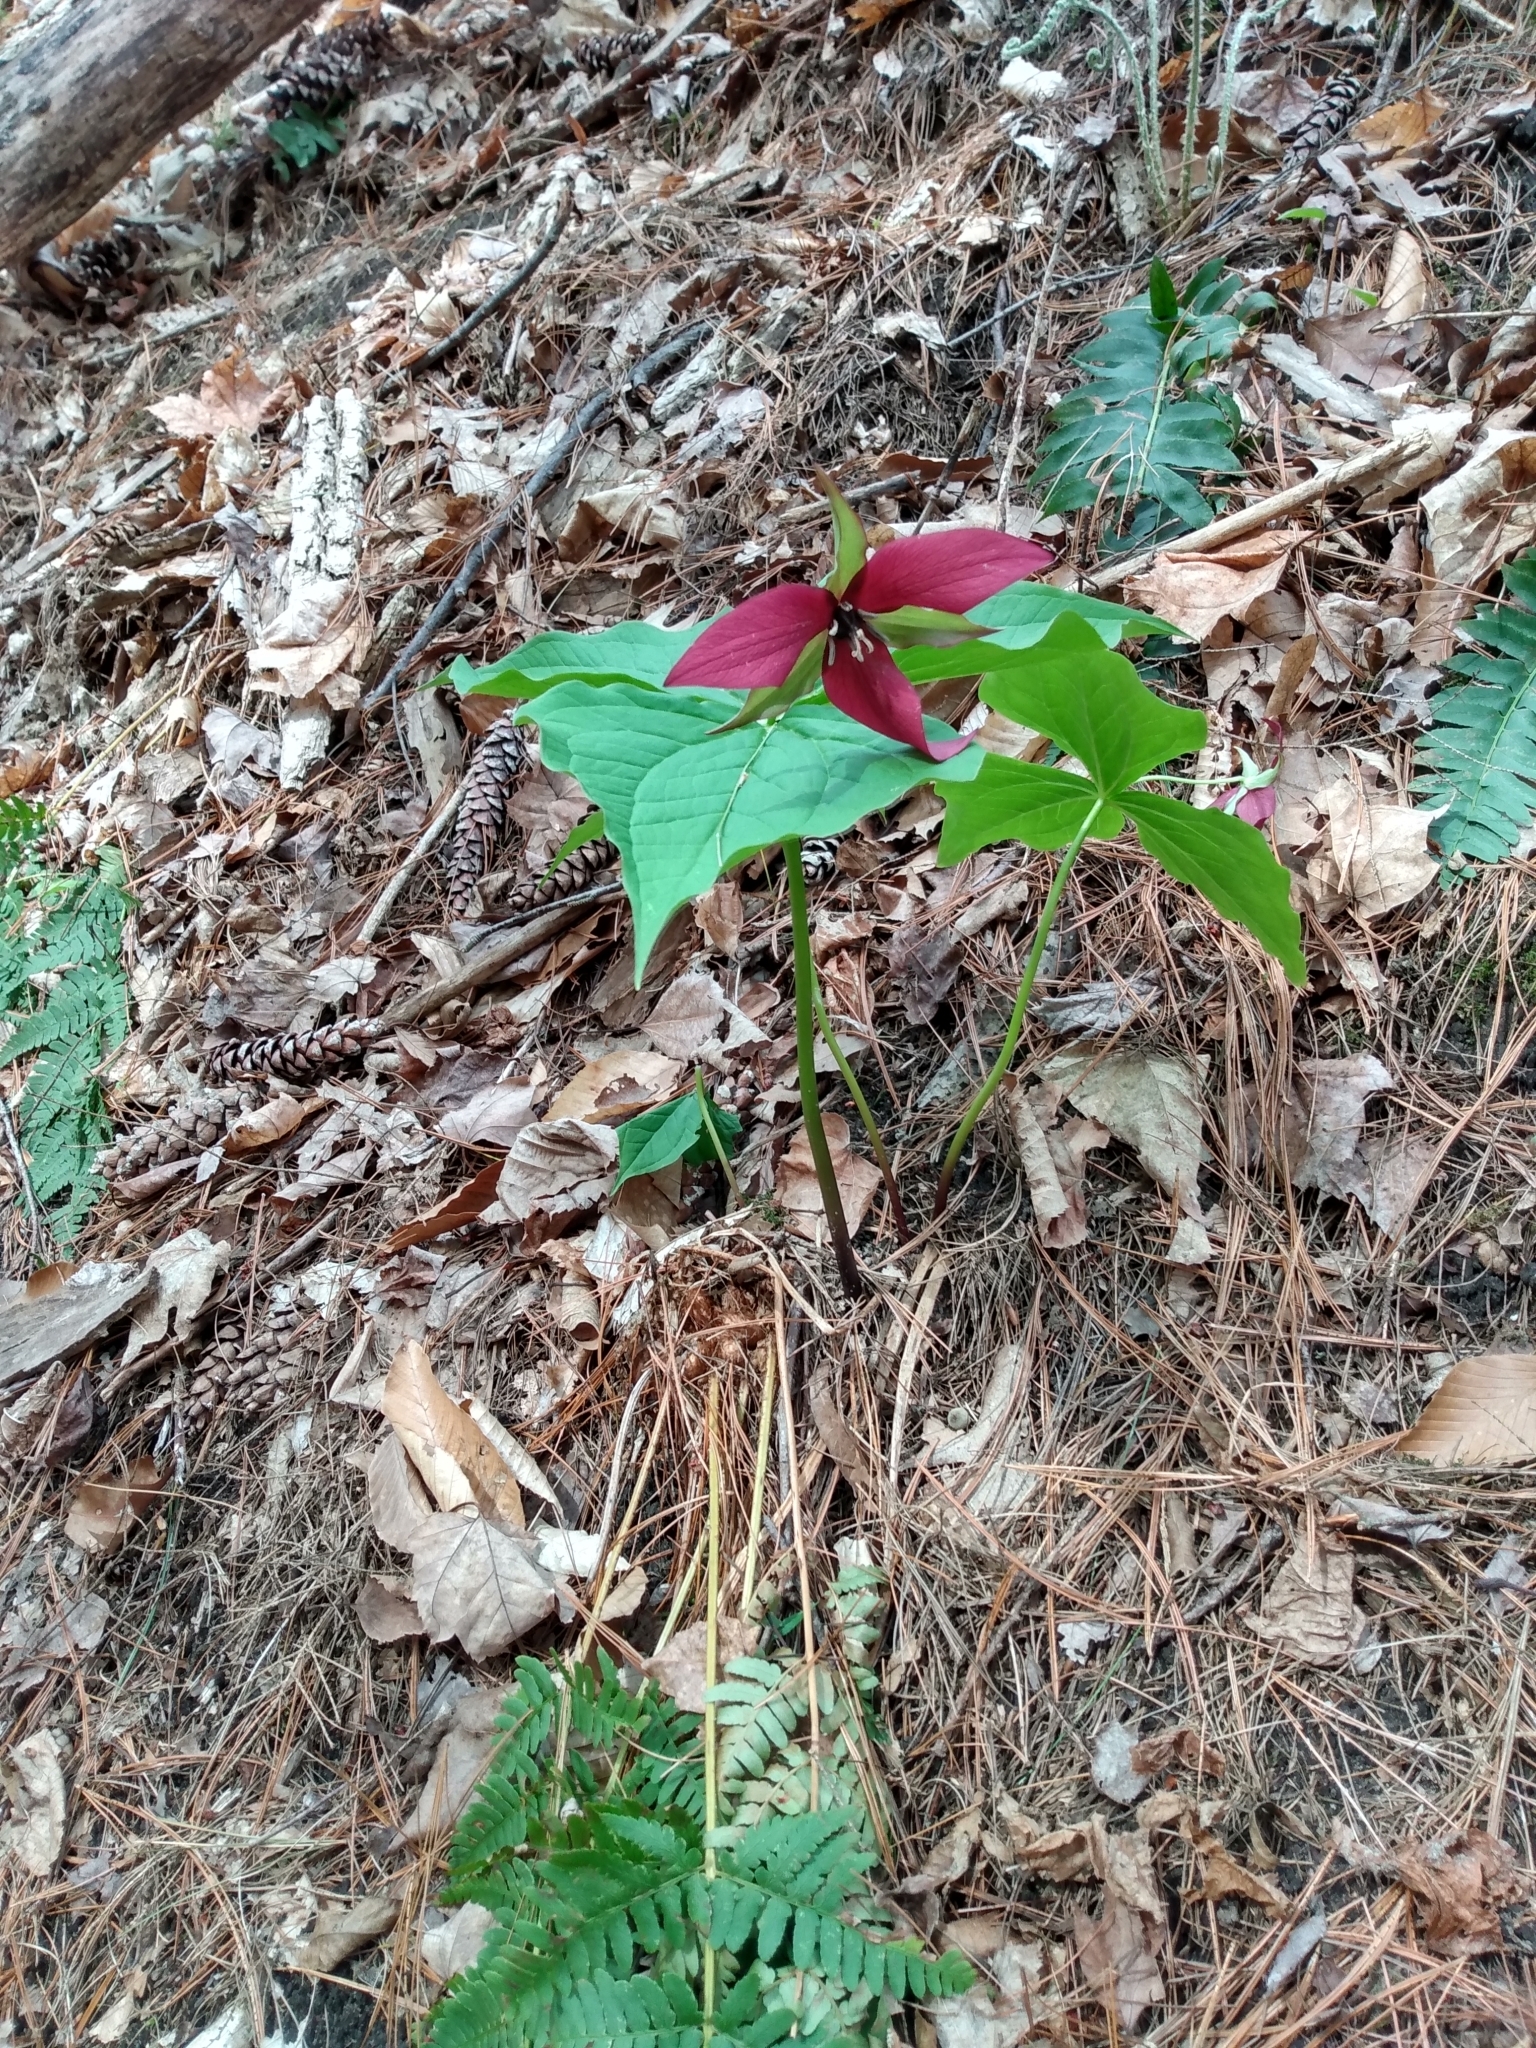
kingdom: Plantae
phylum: Tracheophyta
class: Liliopsida
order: Liliales
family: Melanthiaceae
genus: Trillium
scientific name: Trillium erectum
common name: Purple trillium
